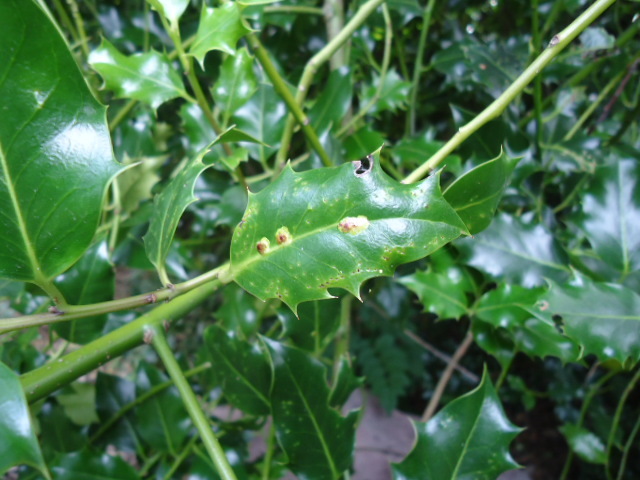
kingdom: Animalia
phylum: Arthropoda
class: Insecta
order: Diptera
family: Agromyzidae
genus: Phytomyza
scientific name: Phytomyza ilicis
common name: Holly leafminer
